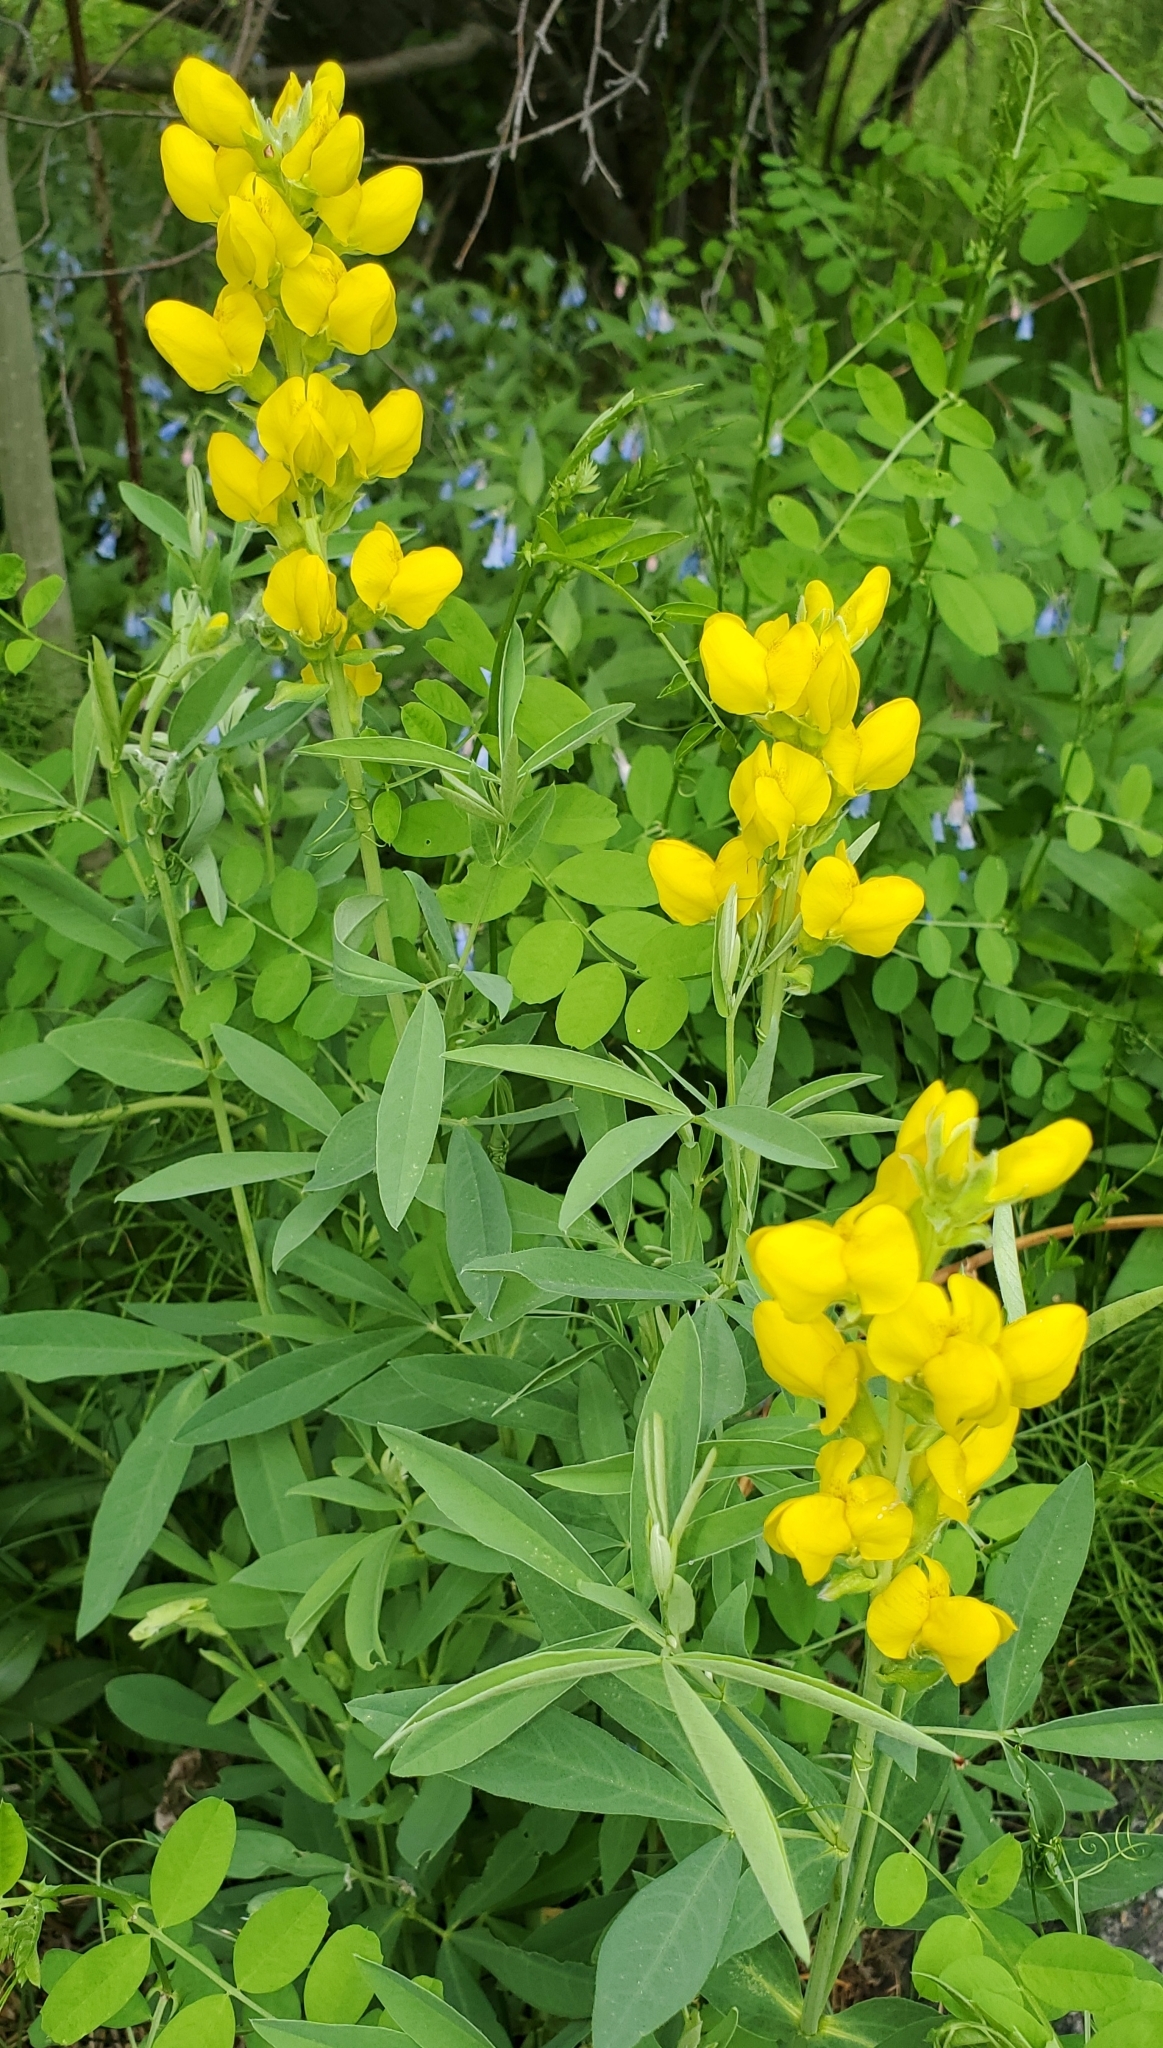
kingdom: Plantae
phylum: Tracheophyta
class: Magnoliopsida
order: Fabales
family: Fabaceae
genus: Thermopsis
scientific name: Thermopsis montana
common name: False lupin
